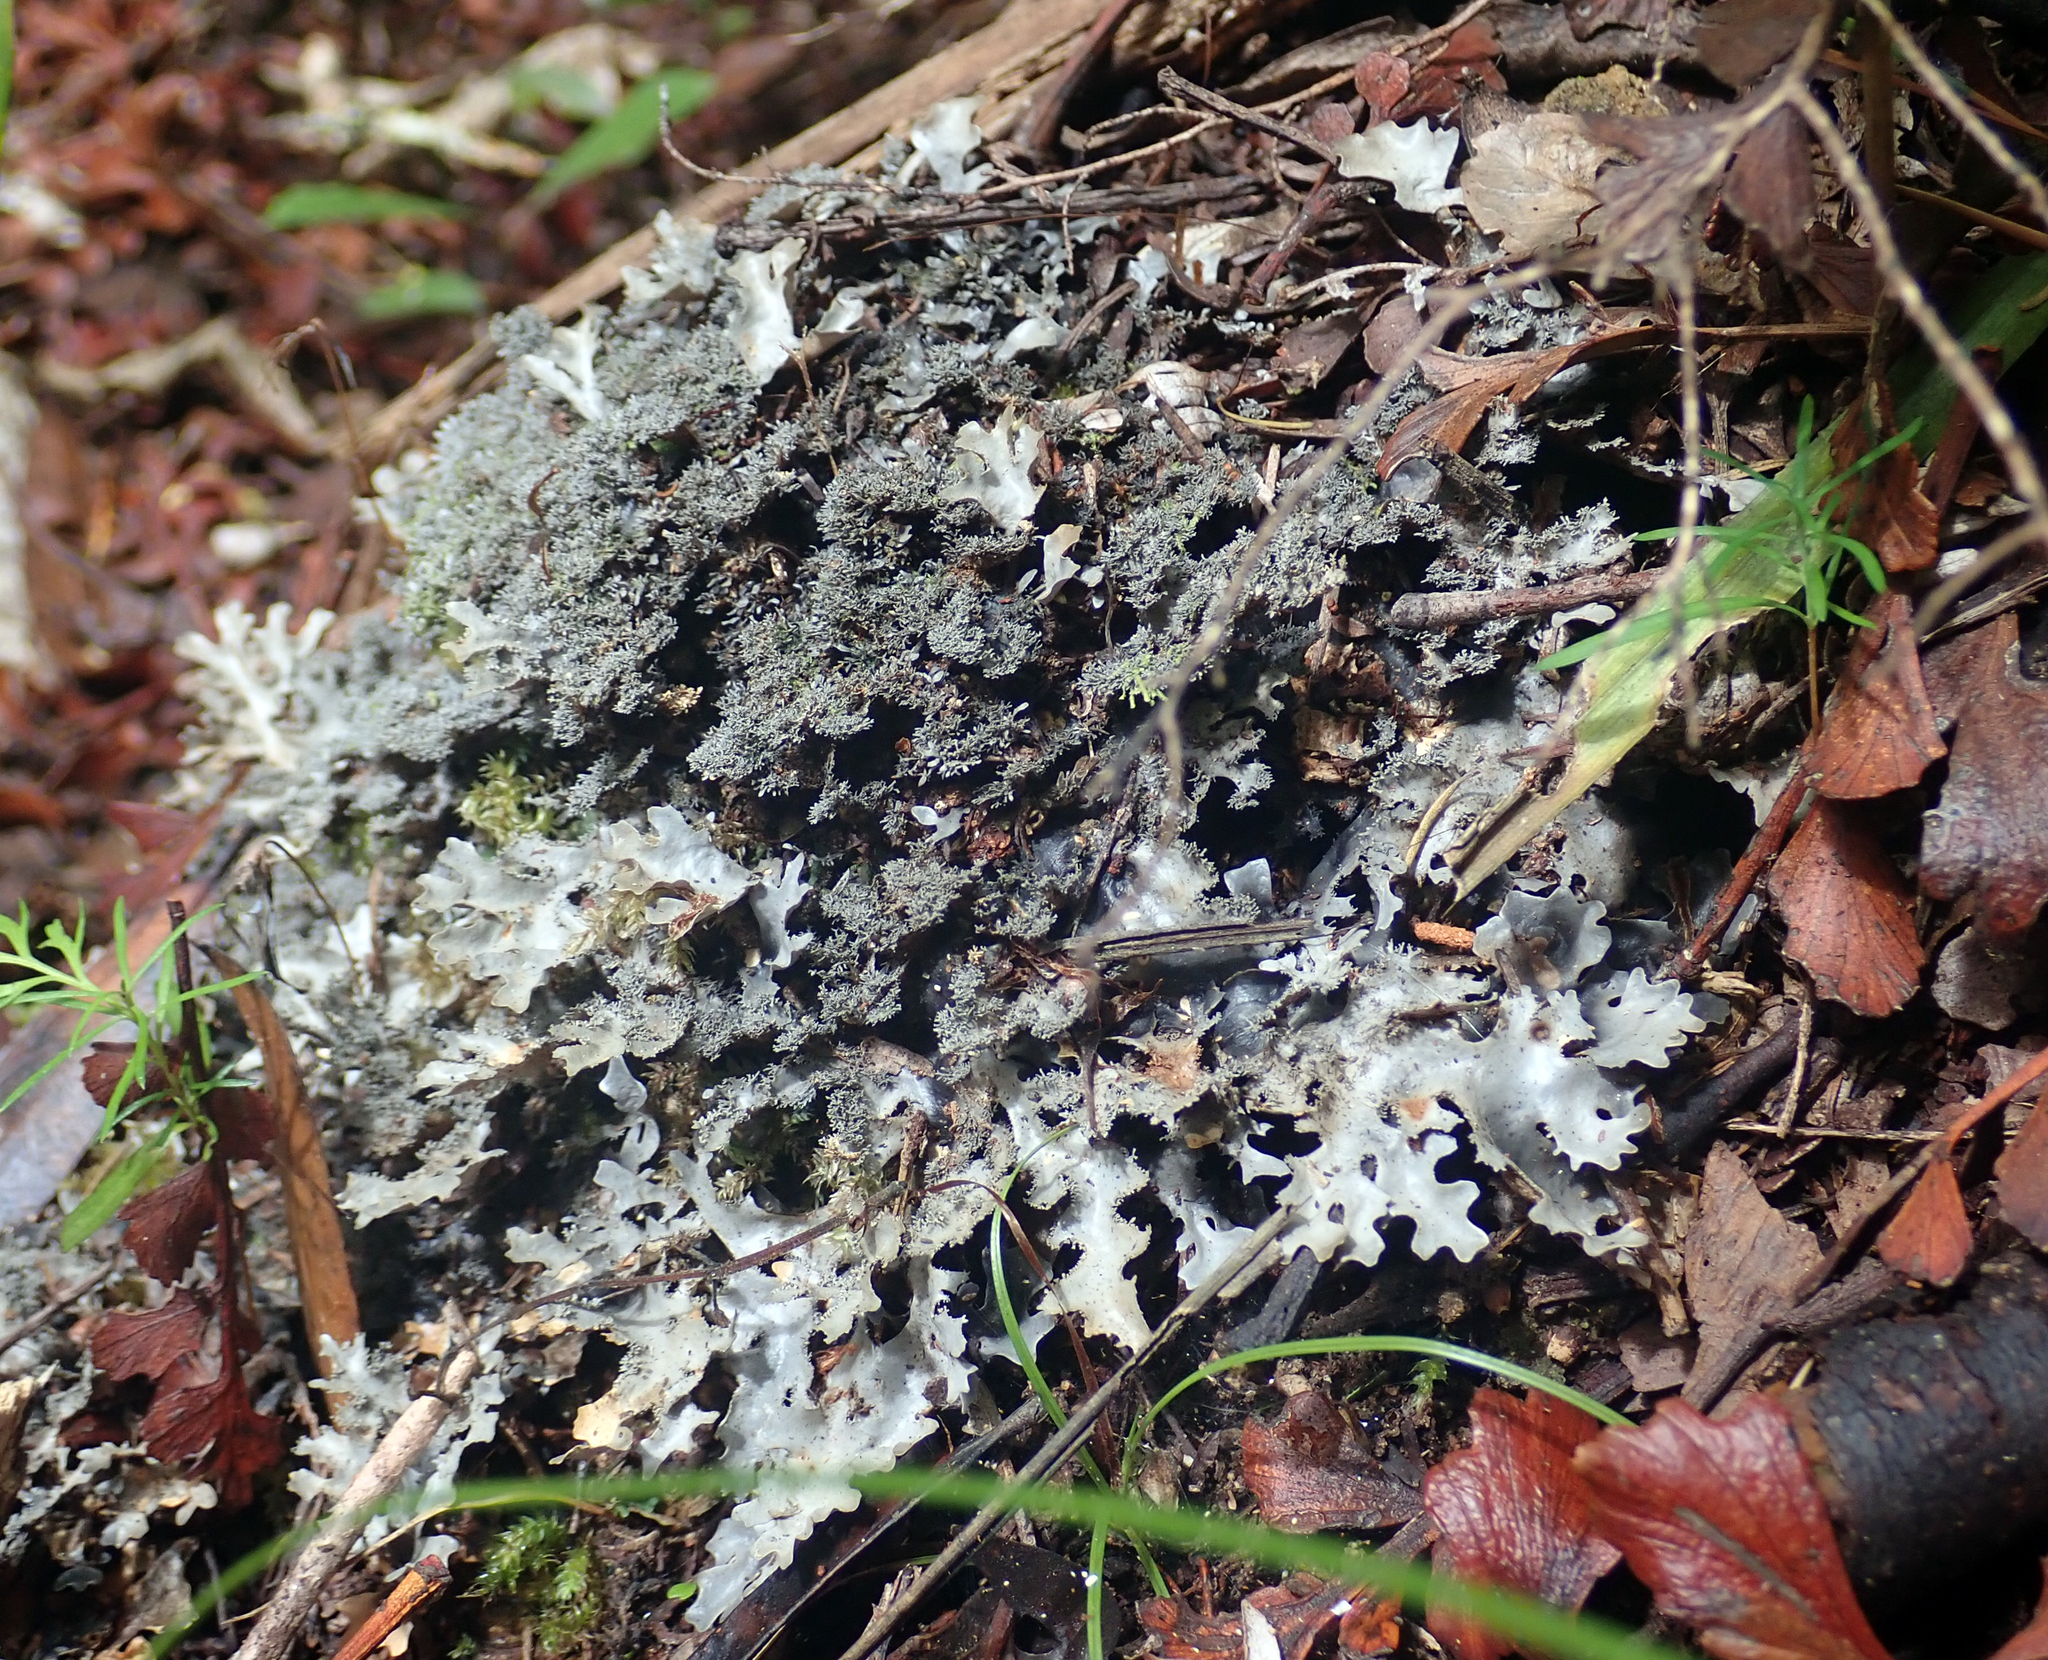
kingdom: Fungi
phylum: Ascomycota
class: Lecanoromycetes
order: Peltigerales
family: Lobariaceae
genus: Pseudocyphellaria
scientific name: Pseudocyphellaria dissimilis
